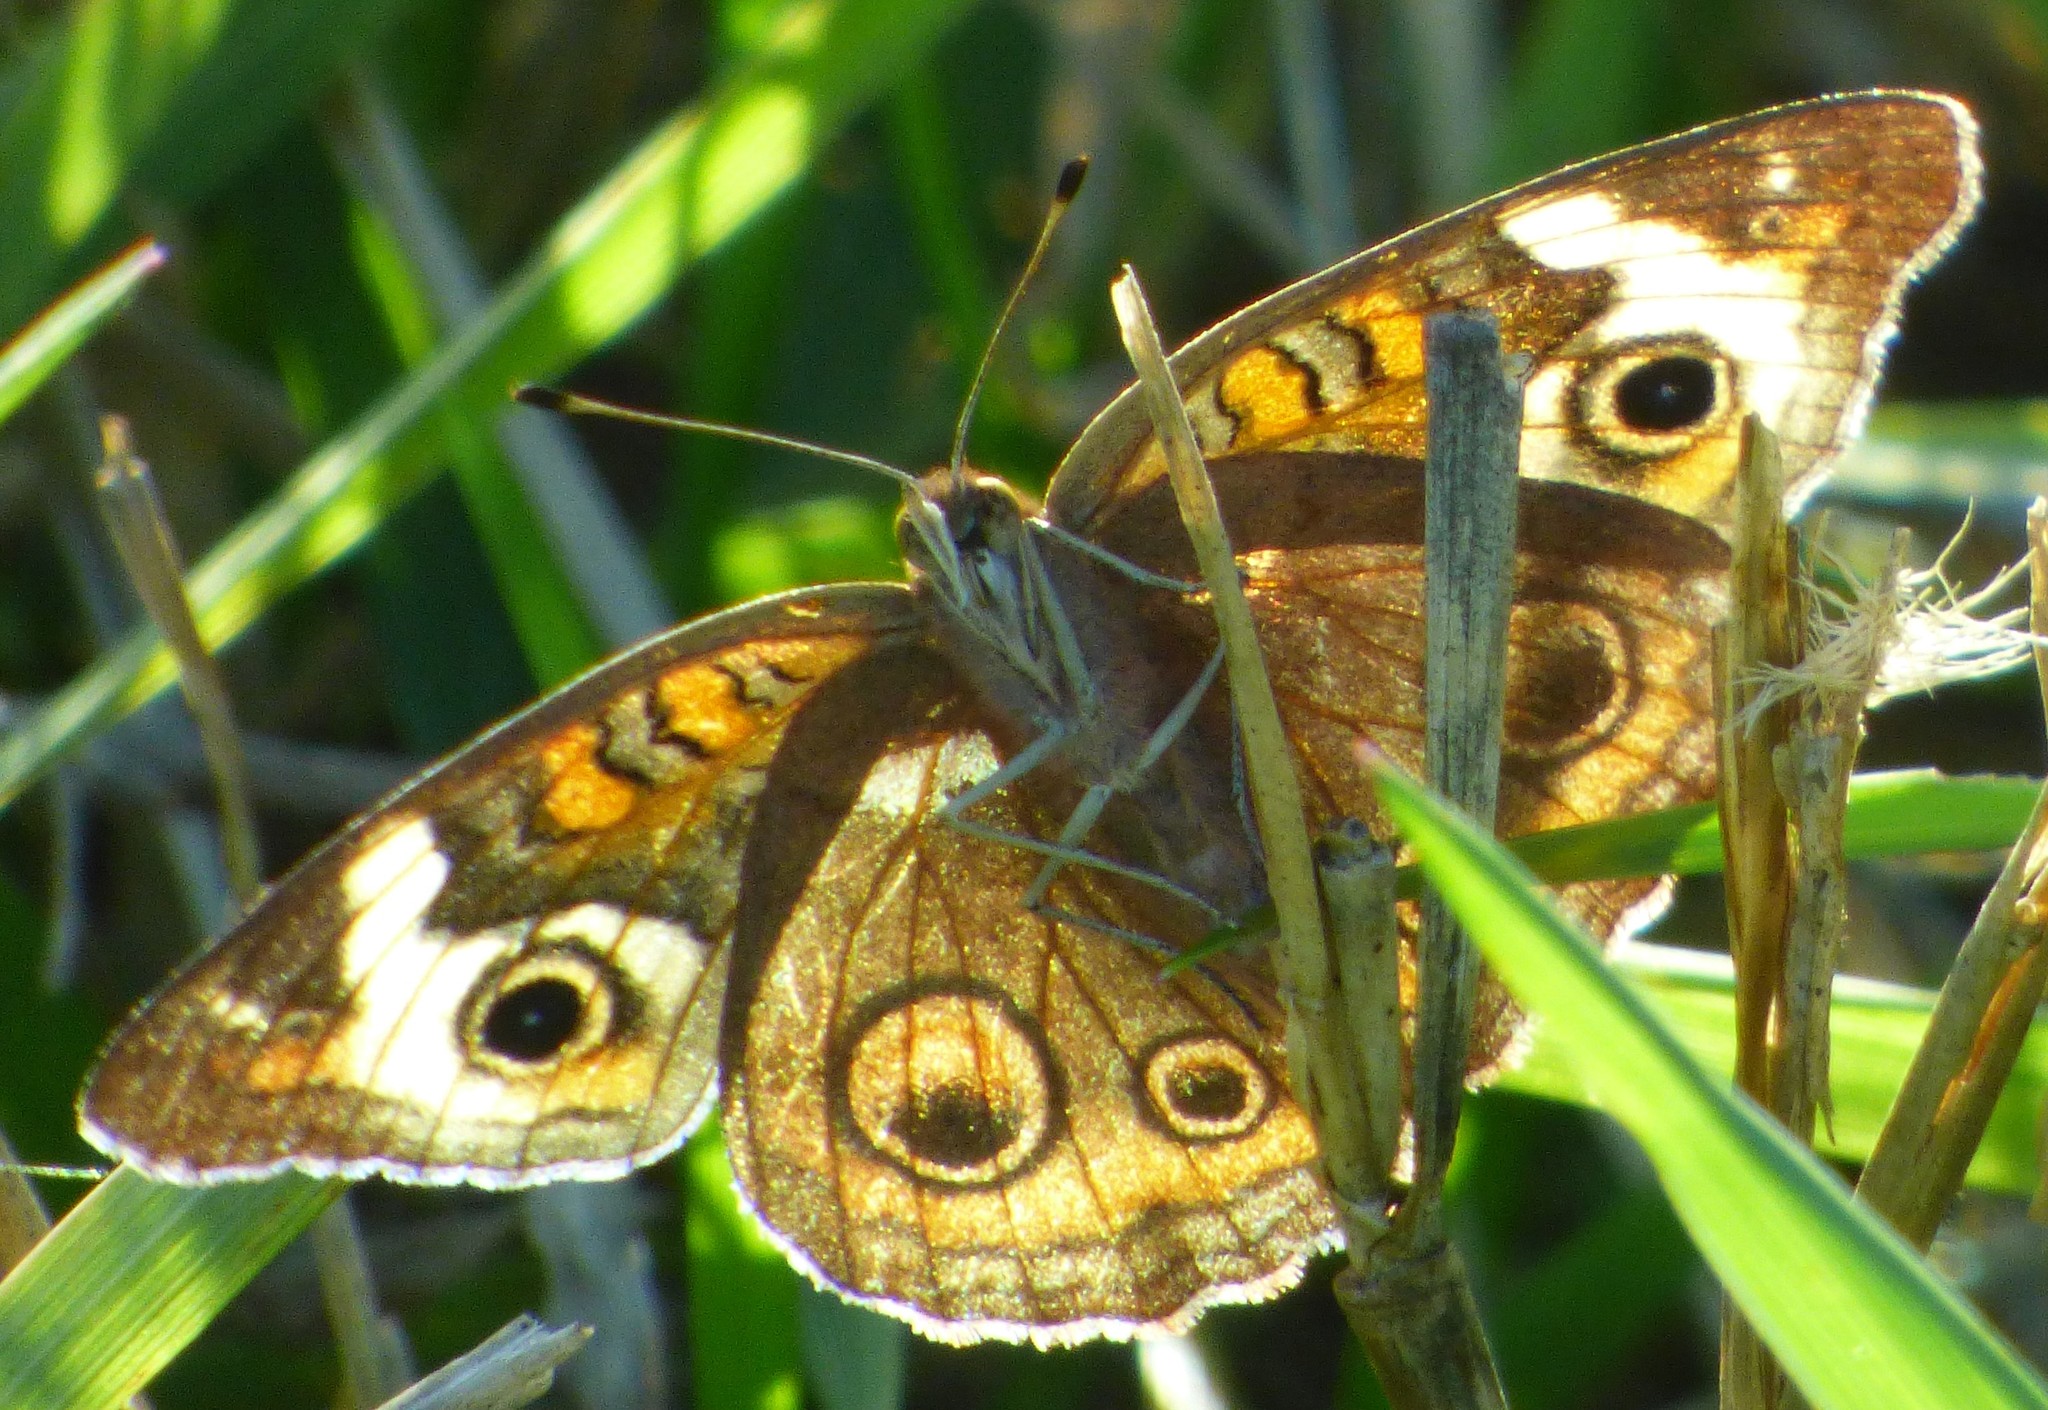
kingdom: Animalia
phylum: Arthropoda
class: Insecta
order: Lepidoptera
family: Nymphalidae
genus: Junonia
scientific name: Junonia coenia
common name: Common buckeye
